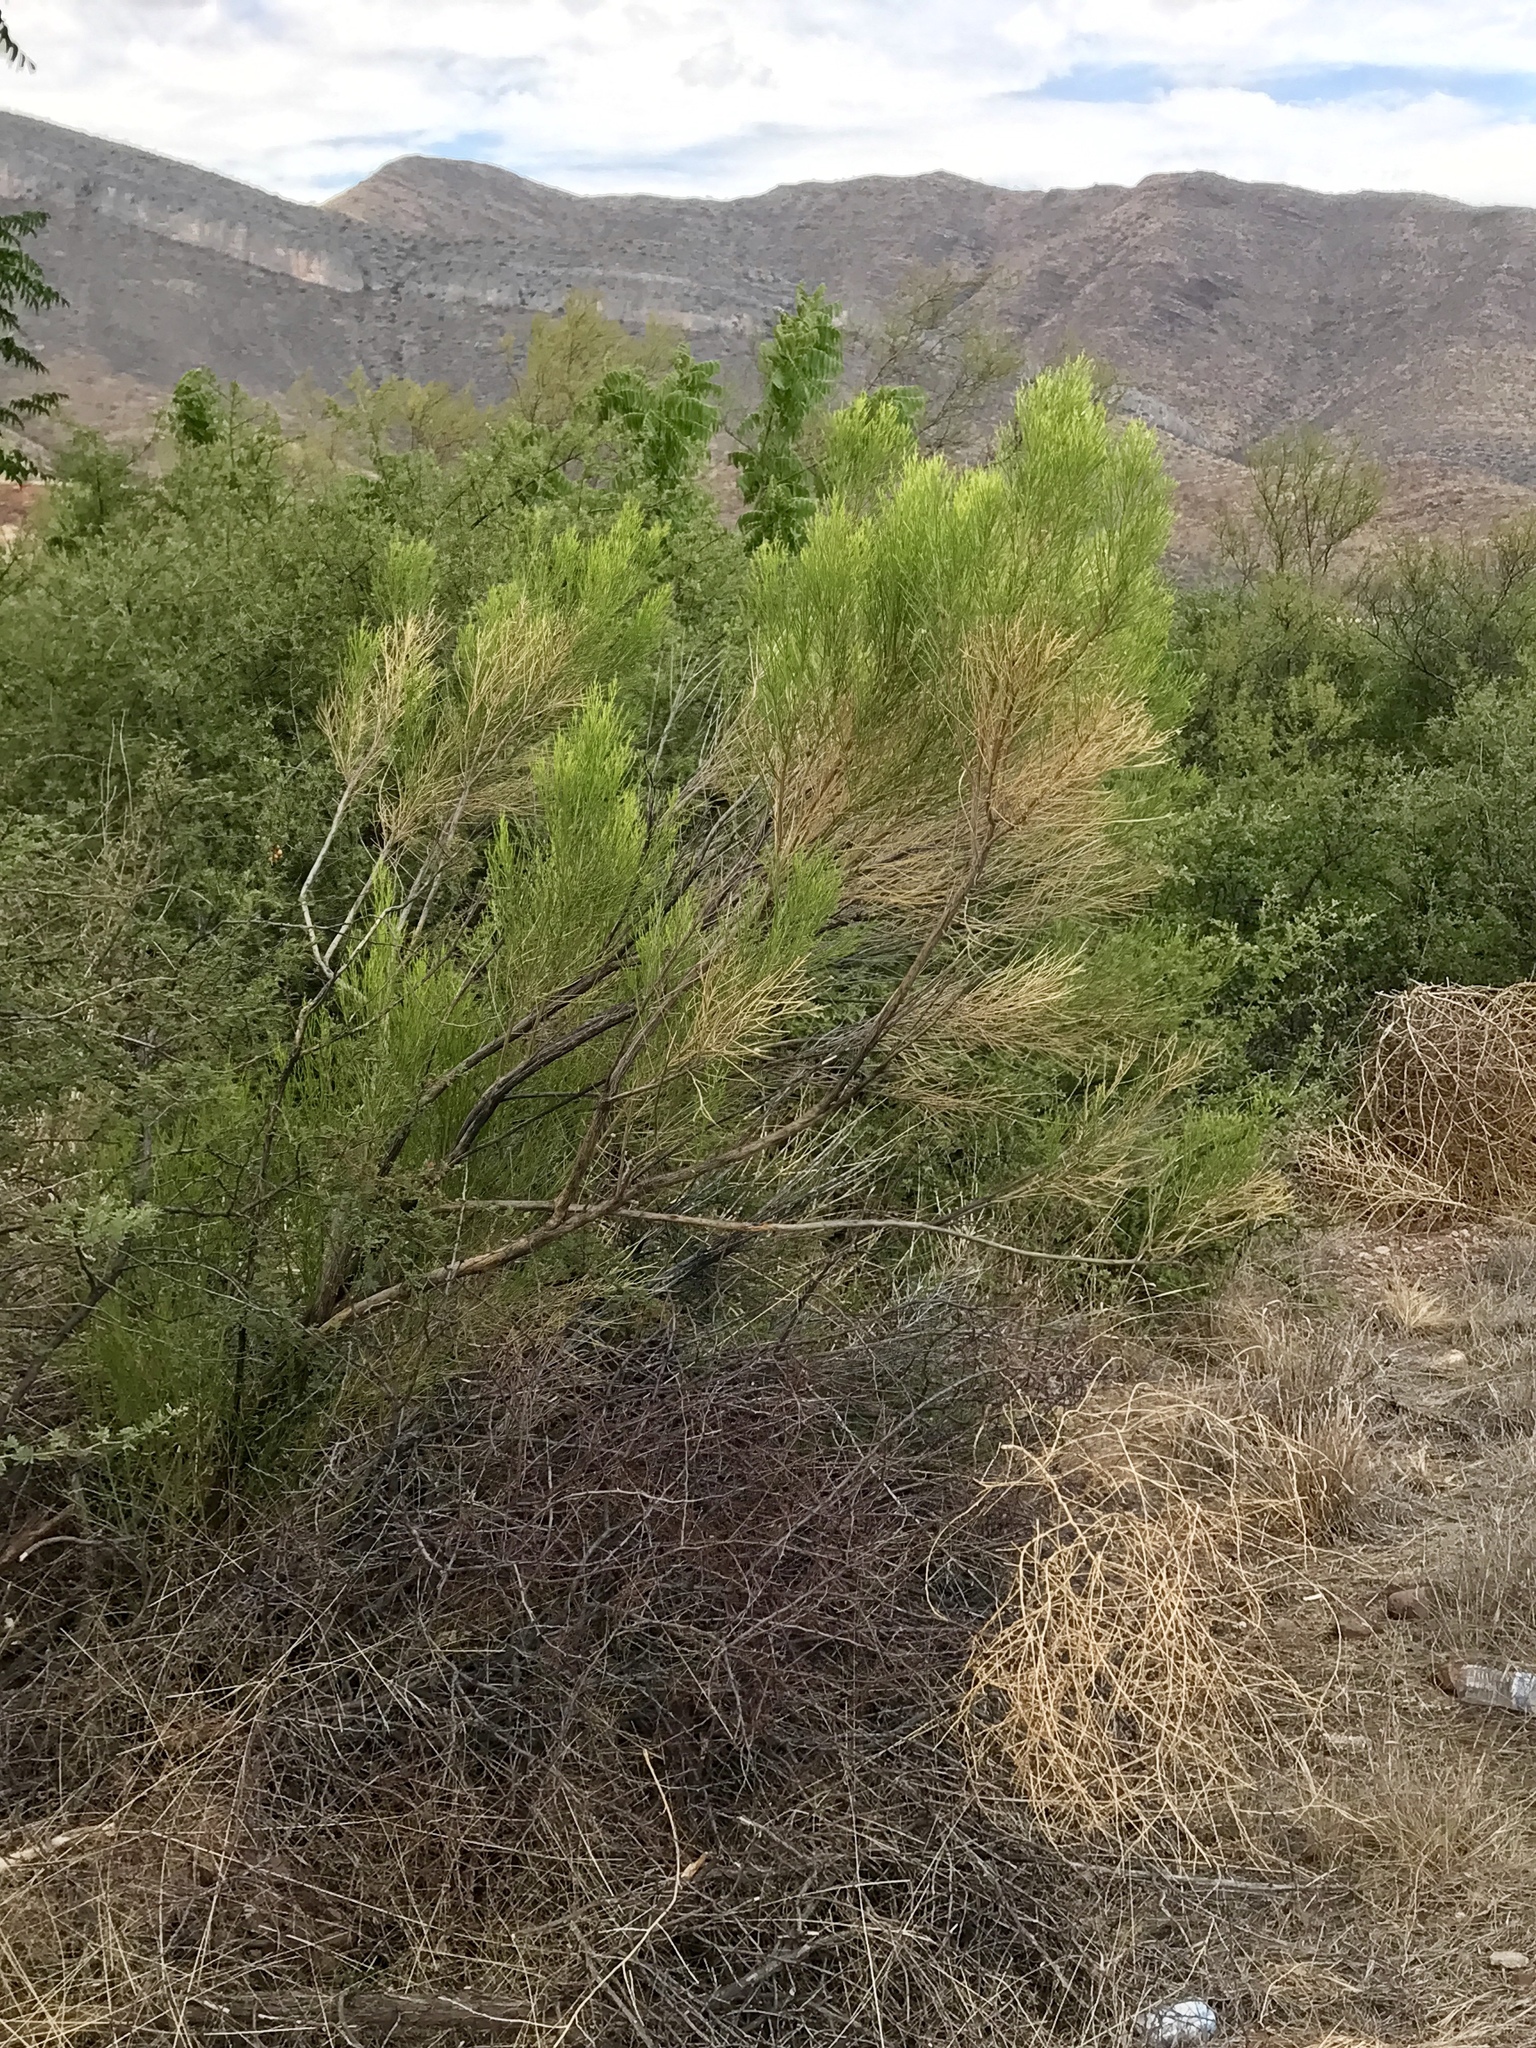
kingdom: Plantae
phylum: Tracheophyta
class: Magnoliopsida
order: Asterales
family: Asteraceae
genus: Baccharis
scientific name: Baccharis sarothroides
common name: Desert-broom
